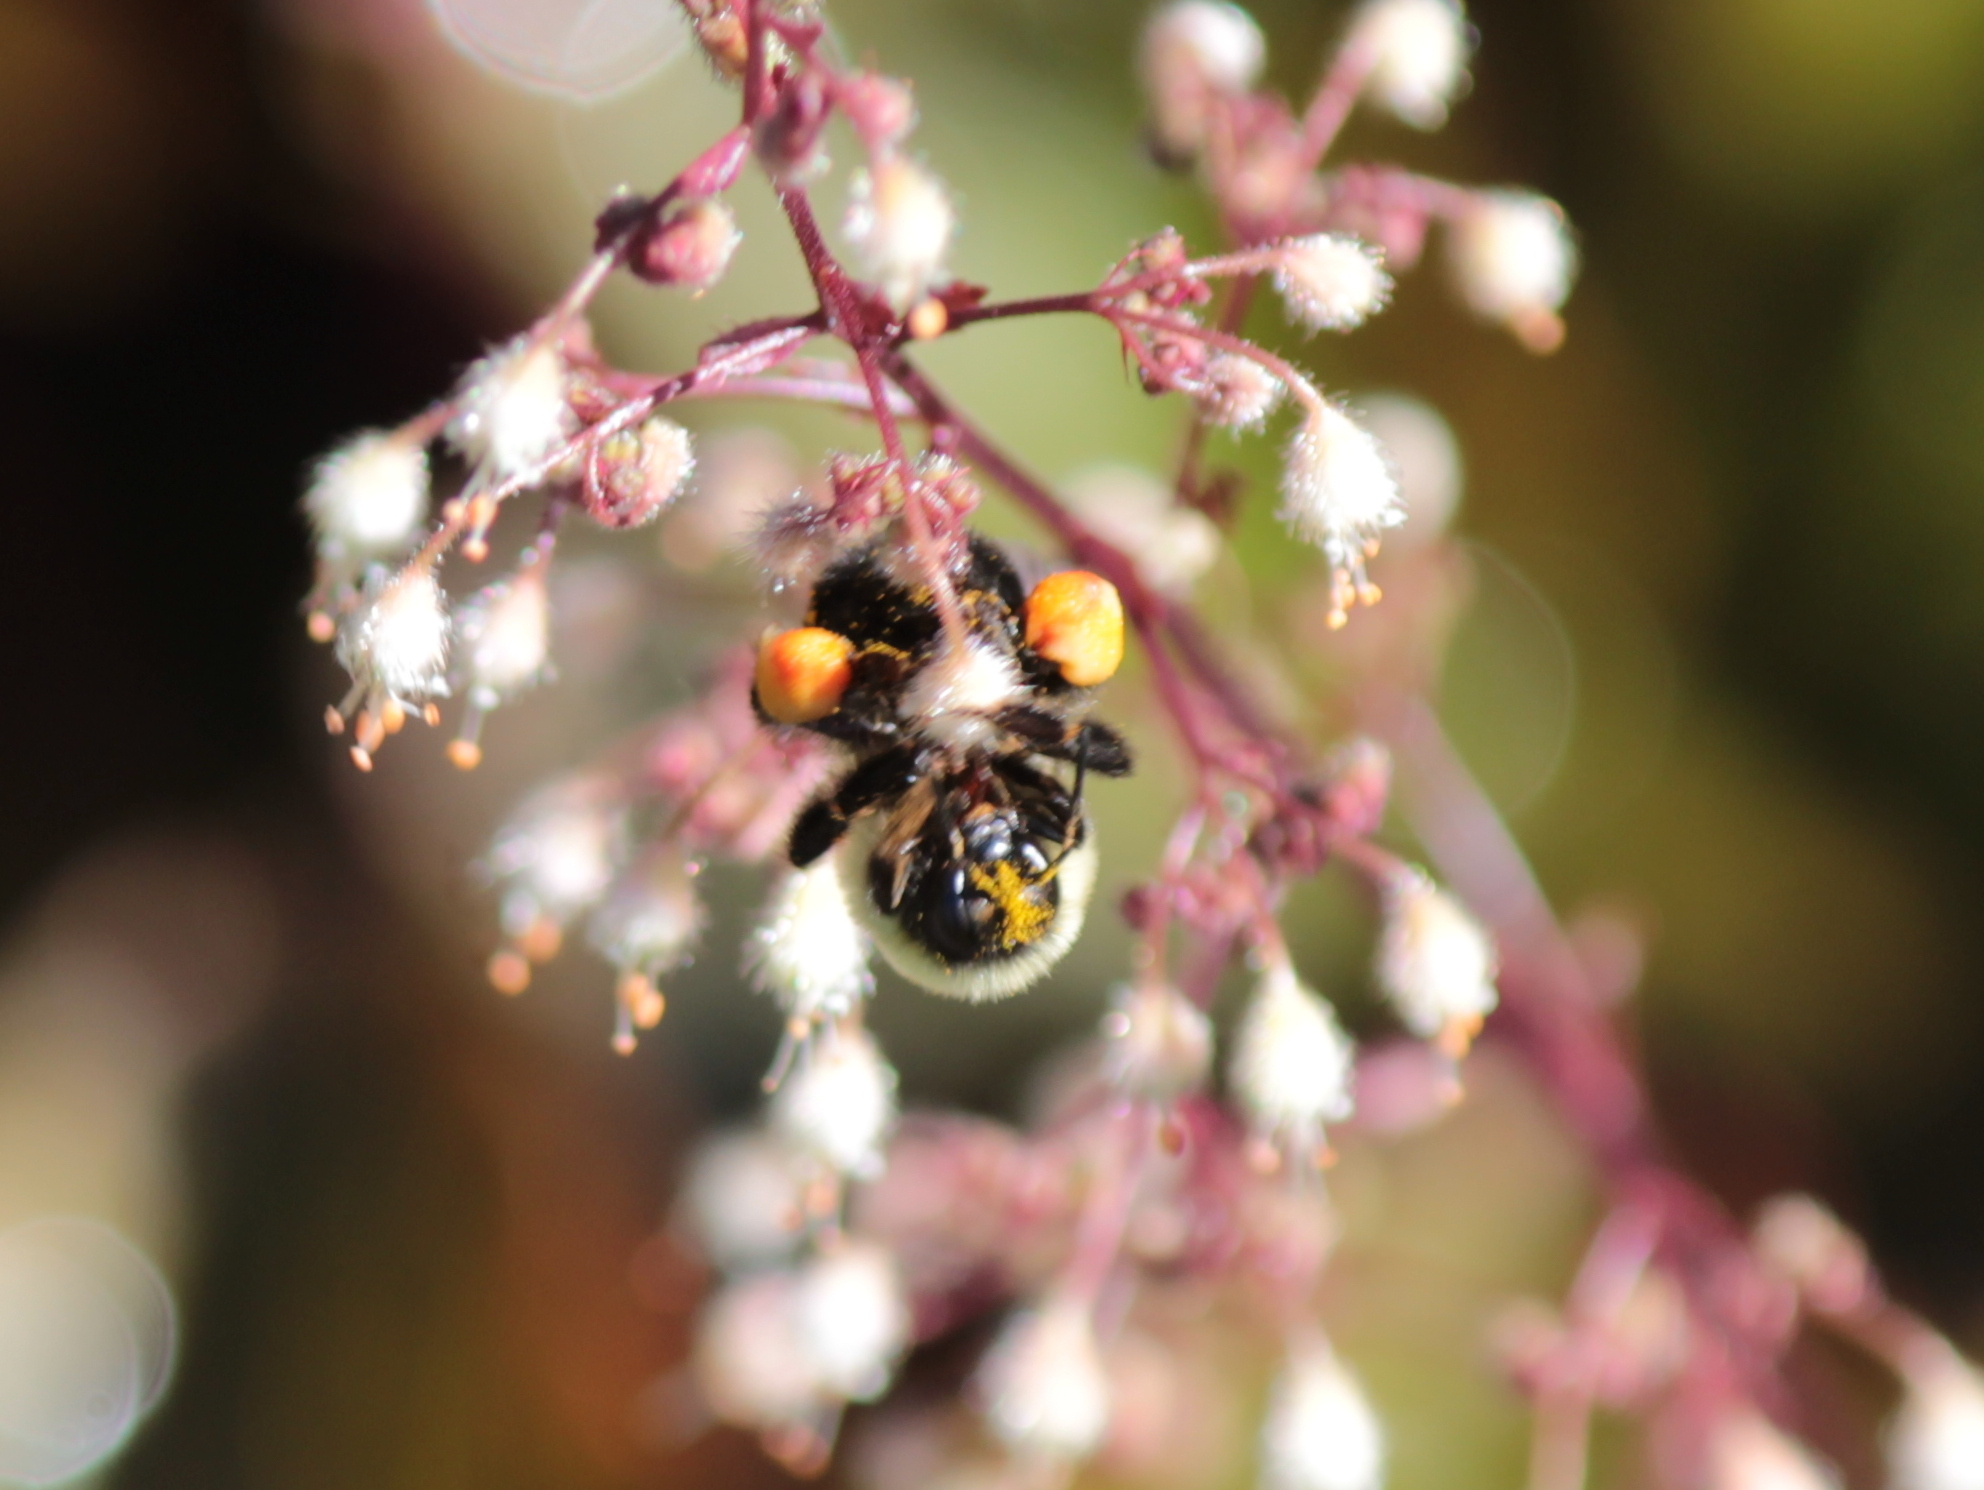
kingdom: Animalia
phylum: Arthropoda
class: Insecta
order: Hymenoptera
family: Apidae
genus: Bombus
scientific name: Bombus impatiens
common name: Common eastern bumble bee
